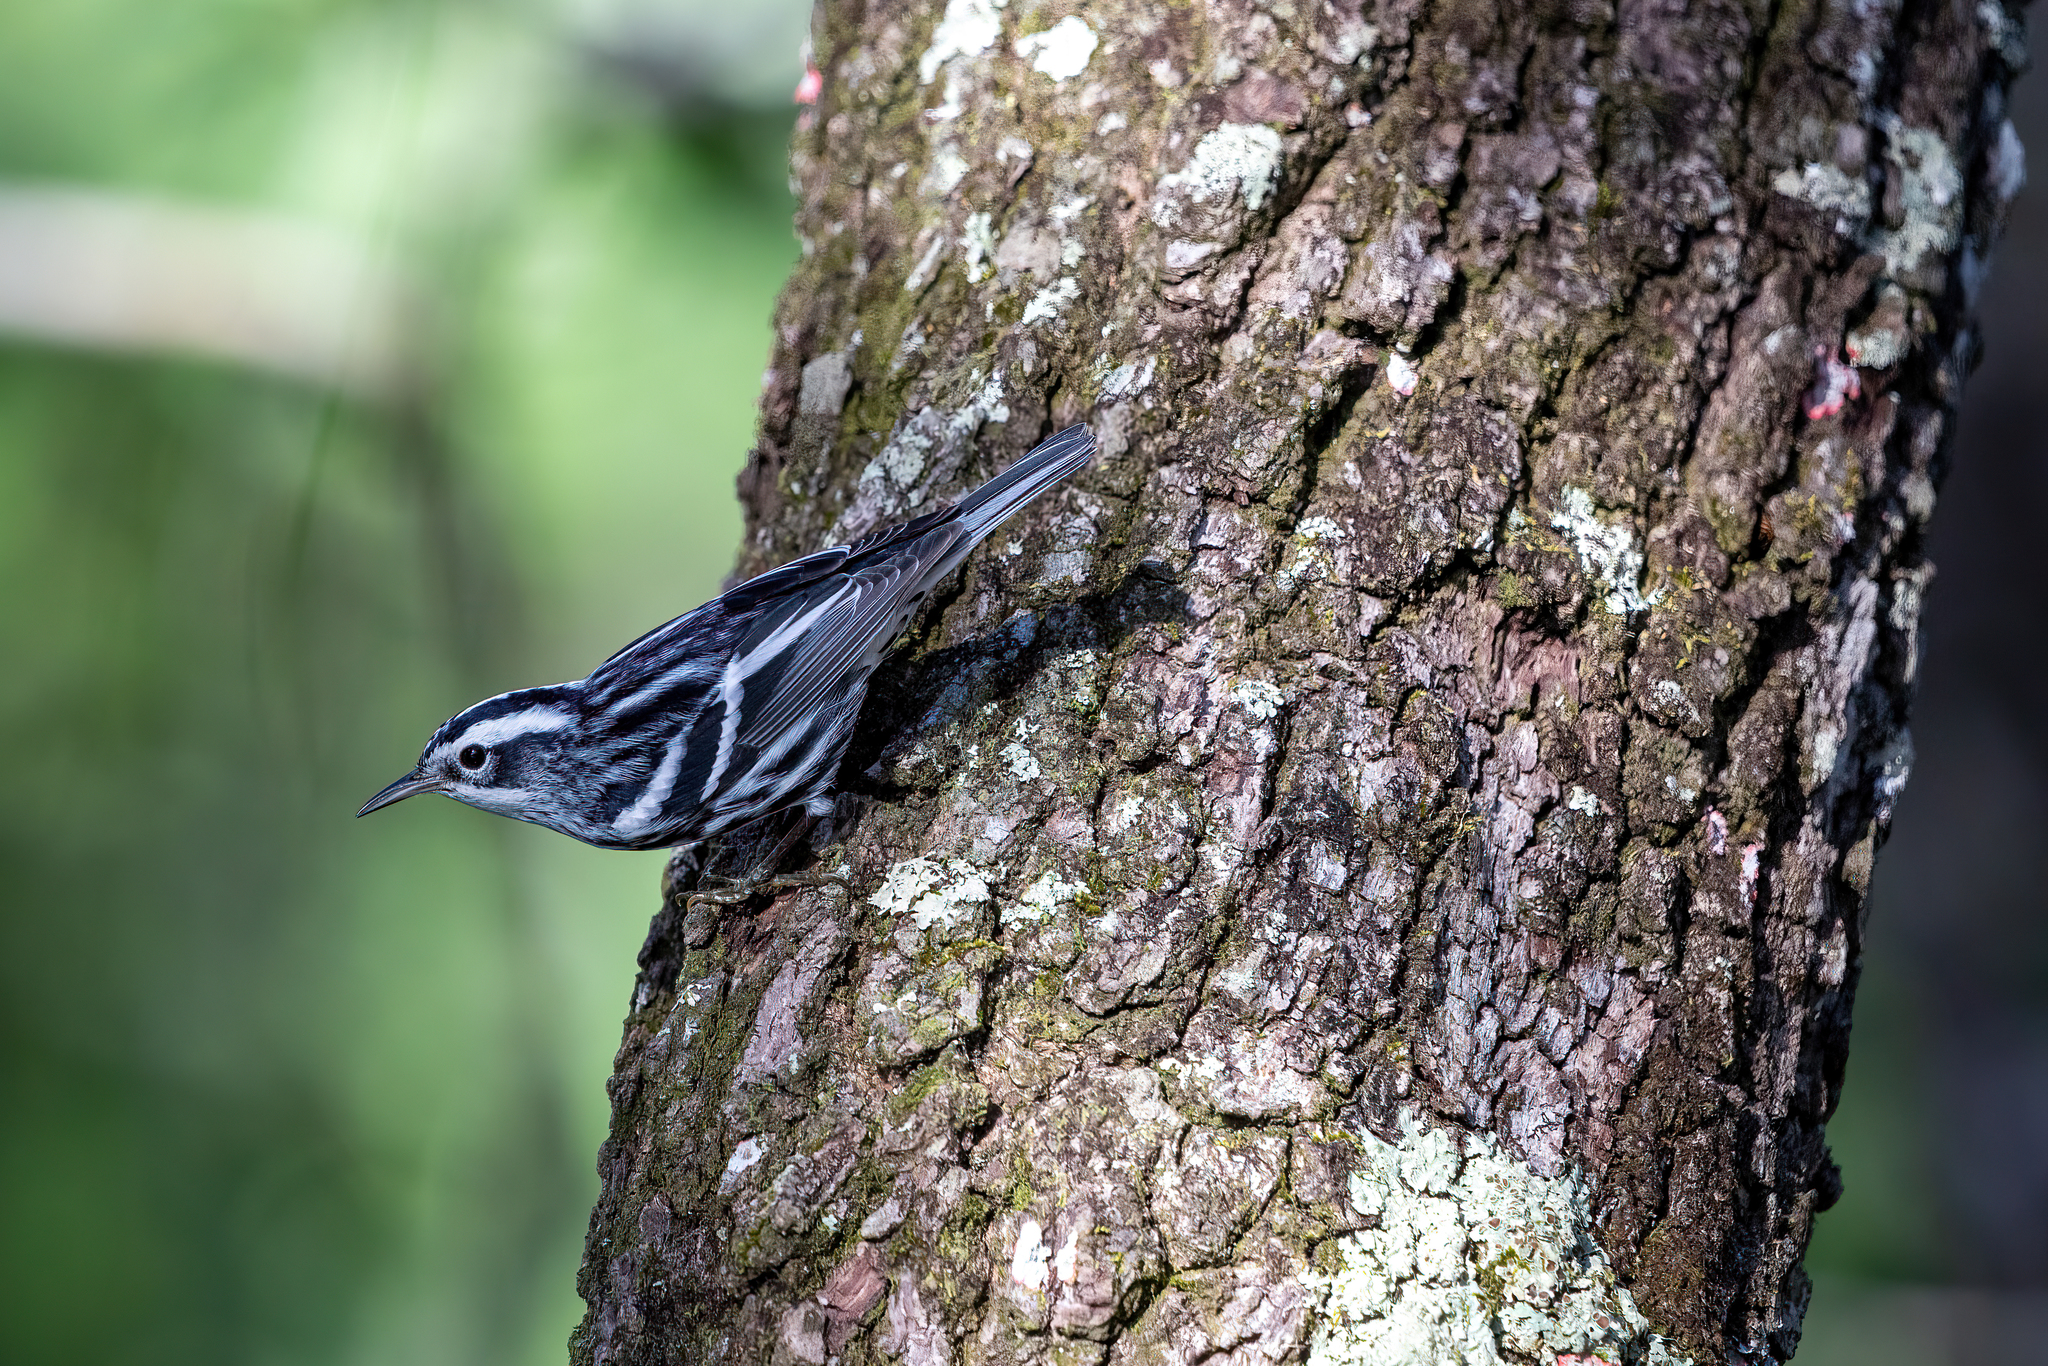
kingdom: Animalia
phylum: Chordata
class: Aves
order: Passeriformes
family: Parulidae
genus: Mniotilta
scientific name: Mniotilta varia
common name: Black-and-white warbler
